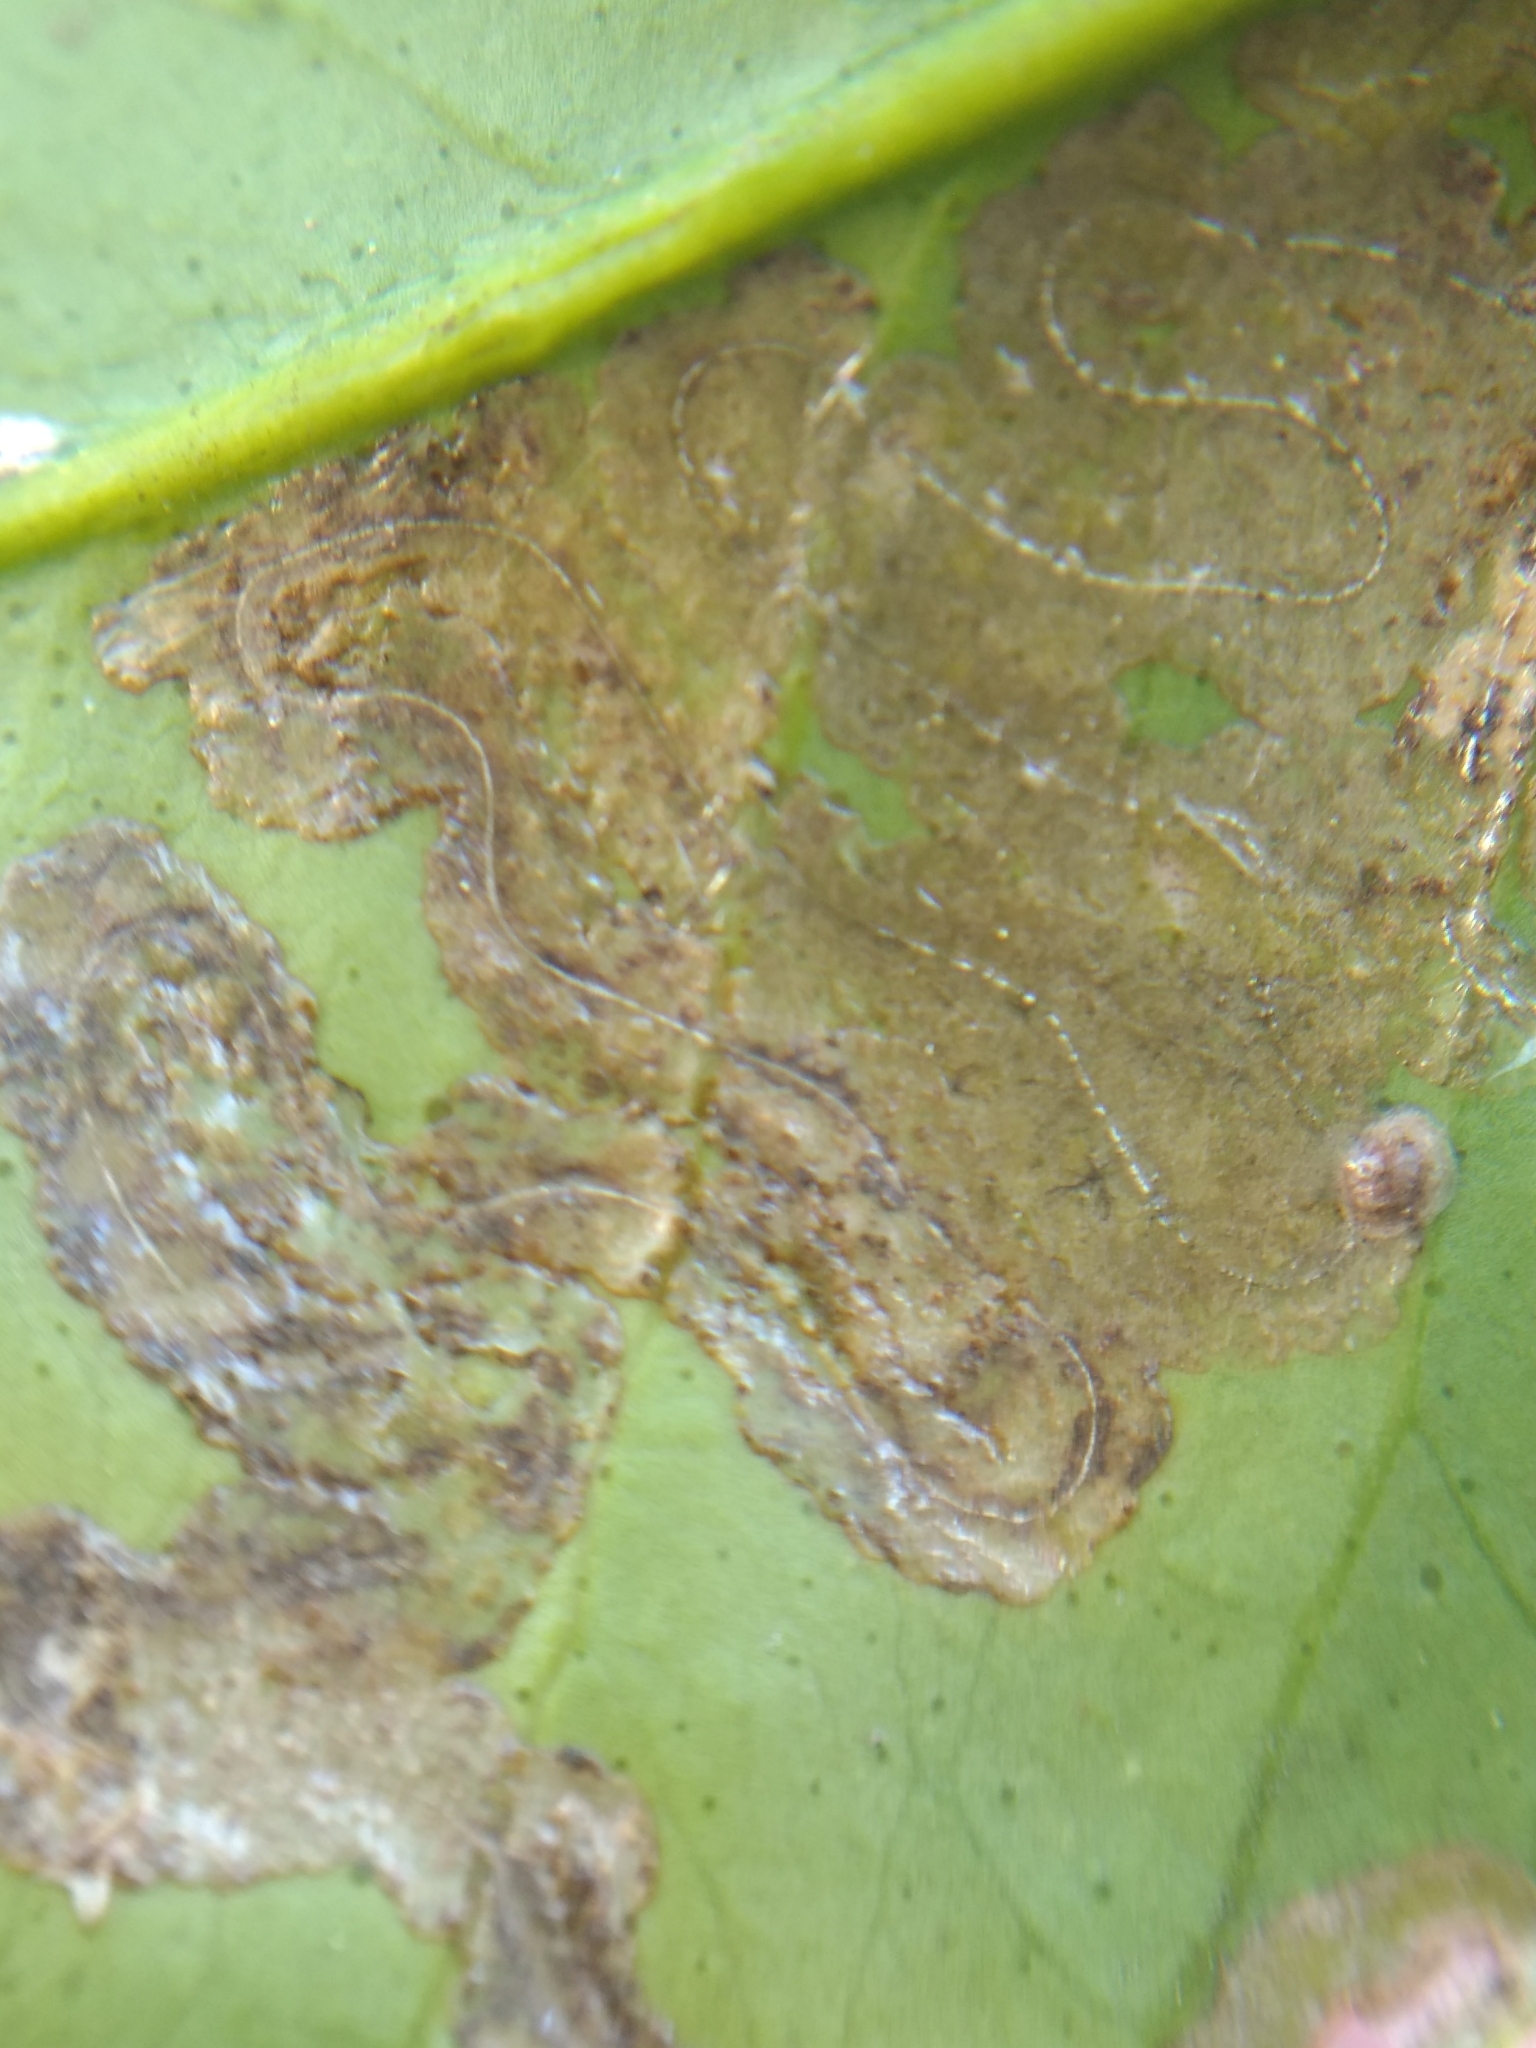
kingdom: Animalia
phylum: Arthropoda
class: Insecta
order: Lepidoptera
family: Gracillariidae
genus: Phyllocnistis
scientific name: Phyllocnistis citrella
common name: Citrus leafminer
